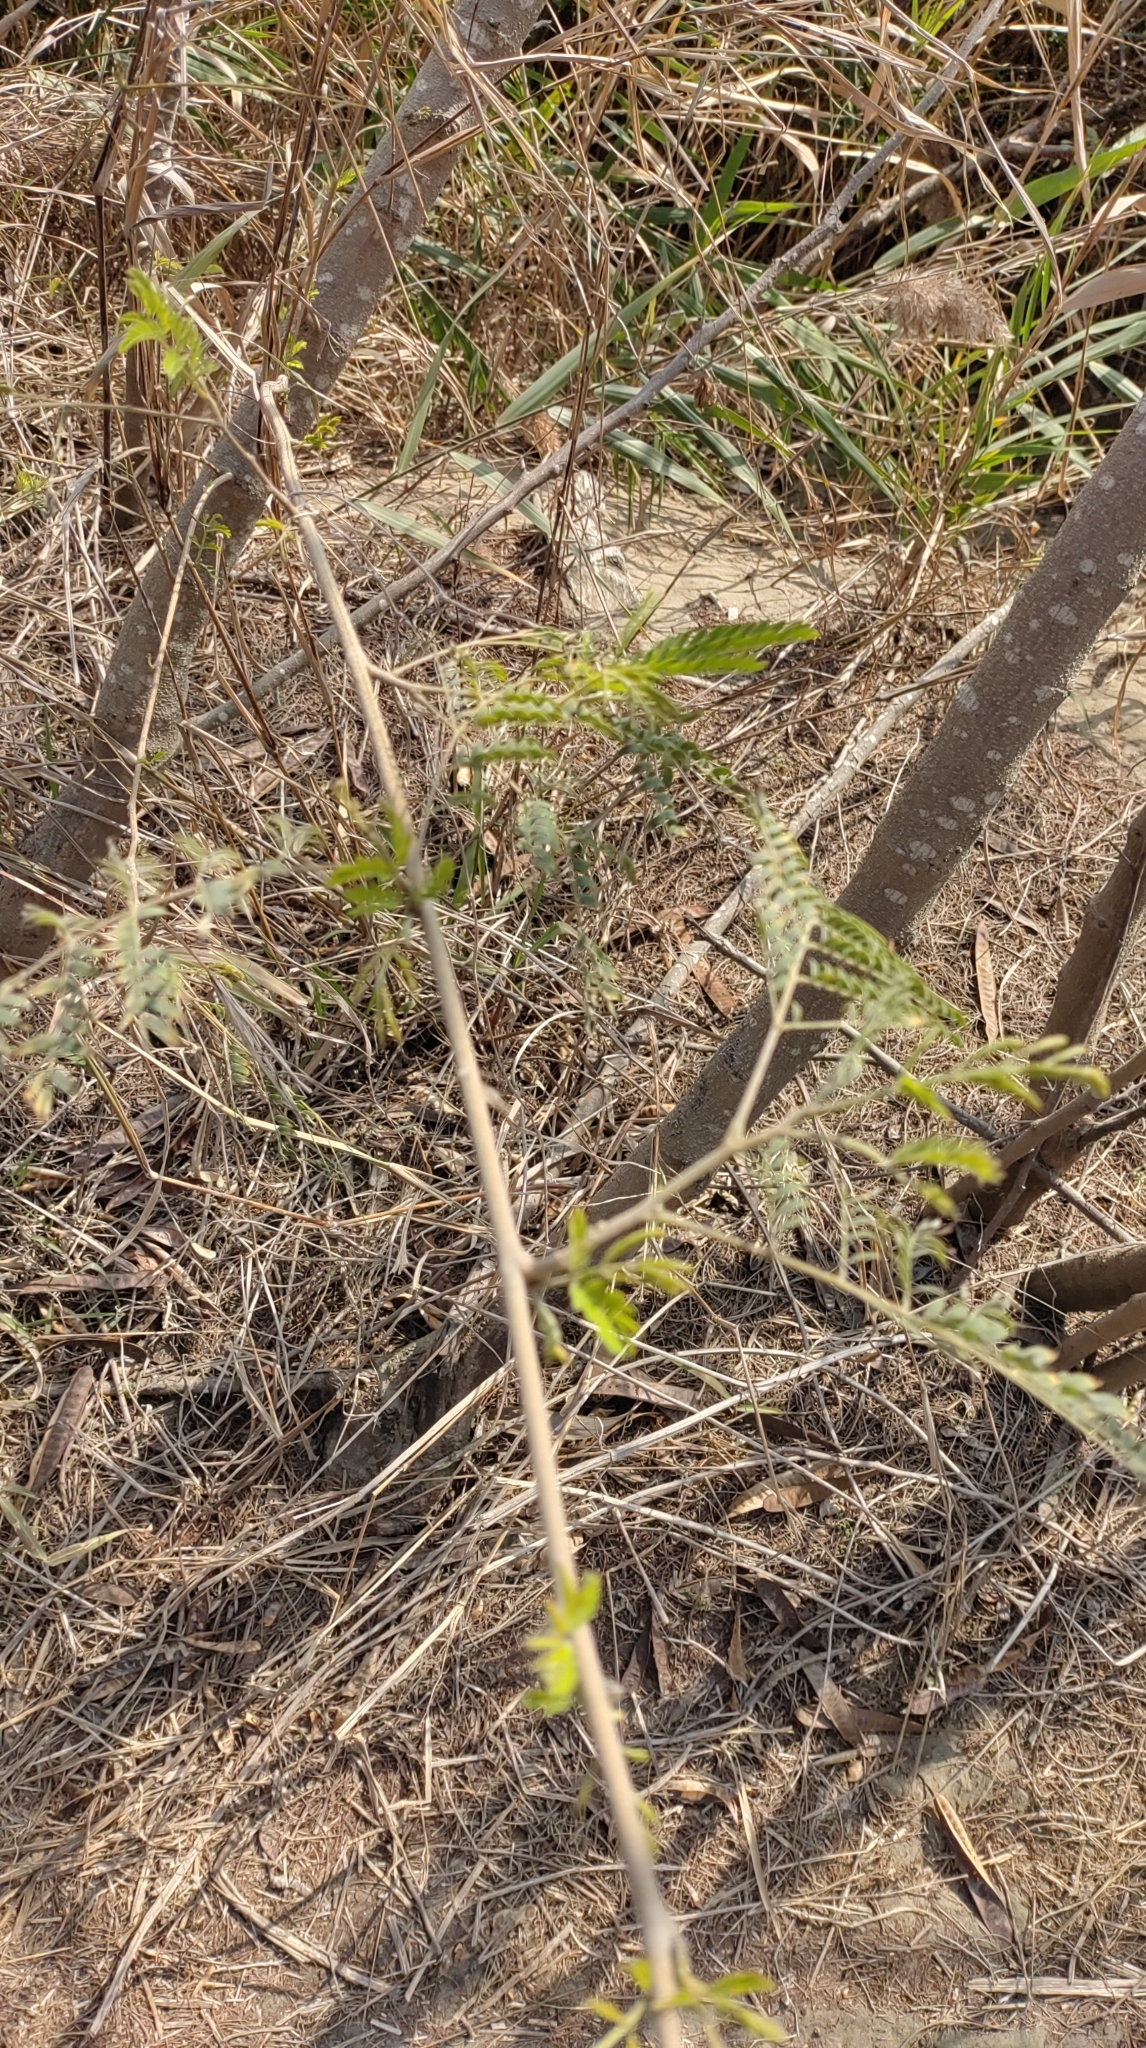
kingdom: Plantae
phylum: Tracheophyta
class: Magnoliopsida
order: Fabales
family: Fabaceae
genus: Leucaena
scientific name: Leucaena leucocephala
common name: White leadtree
